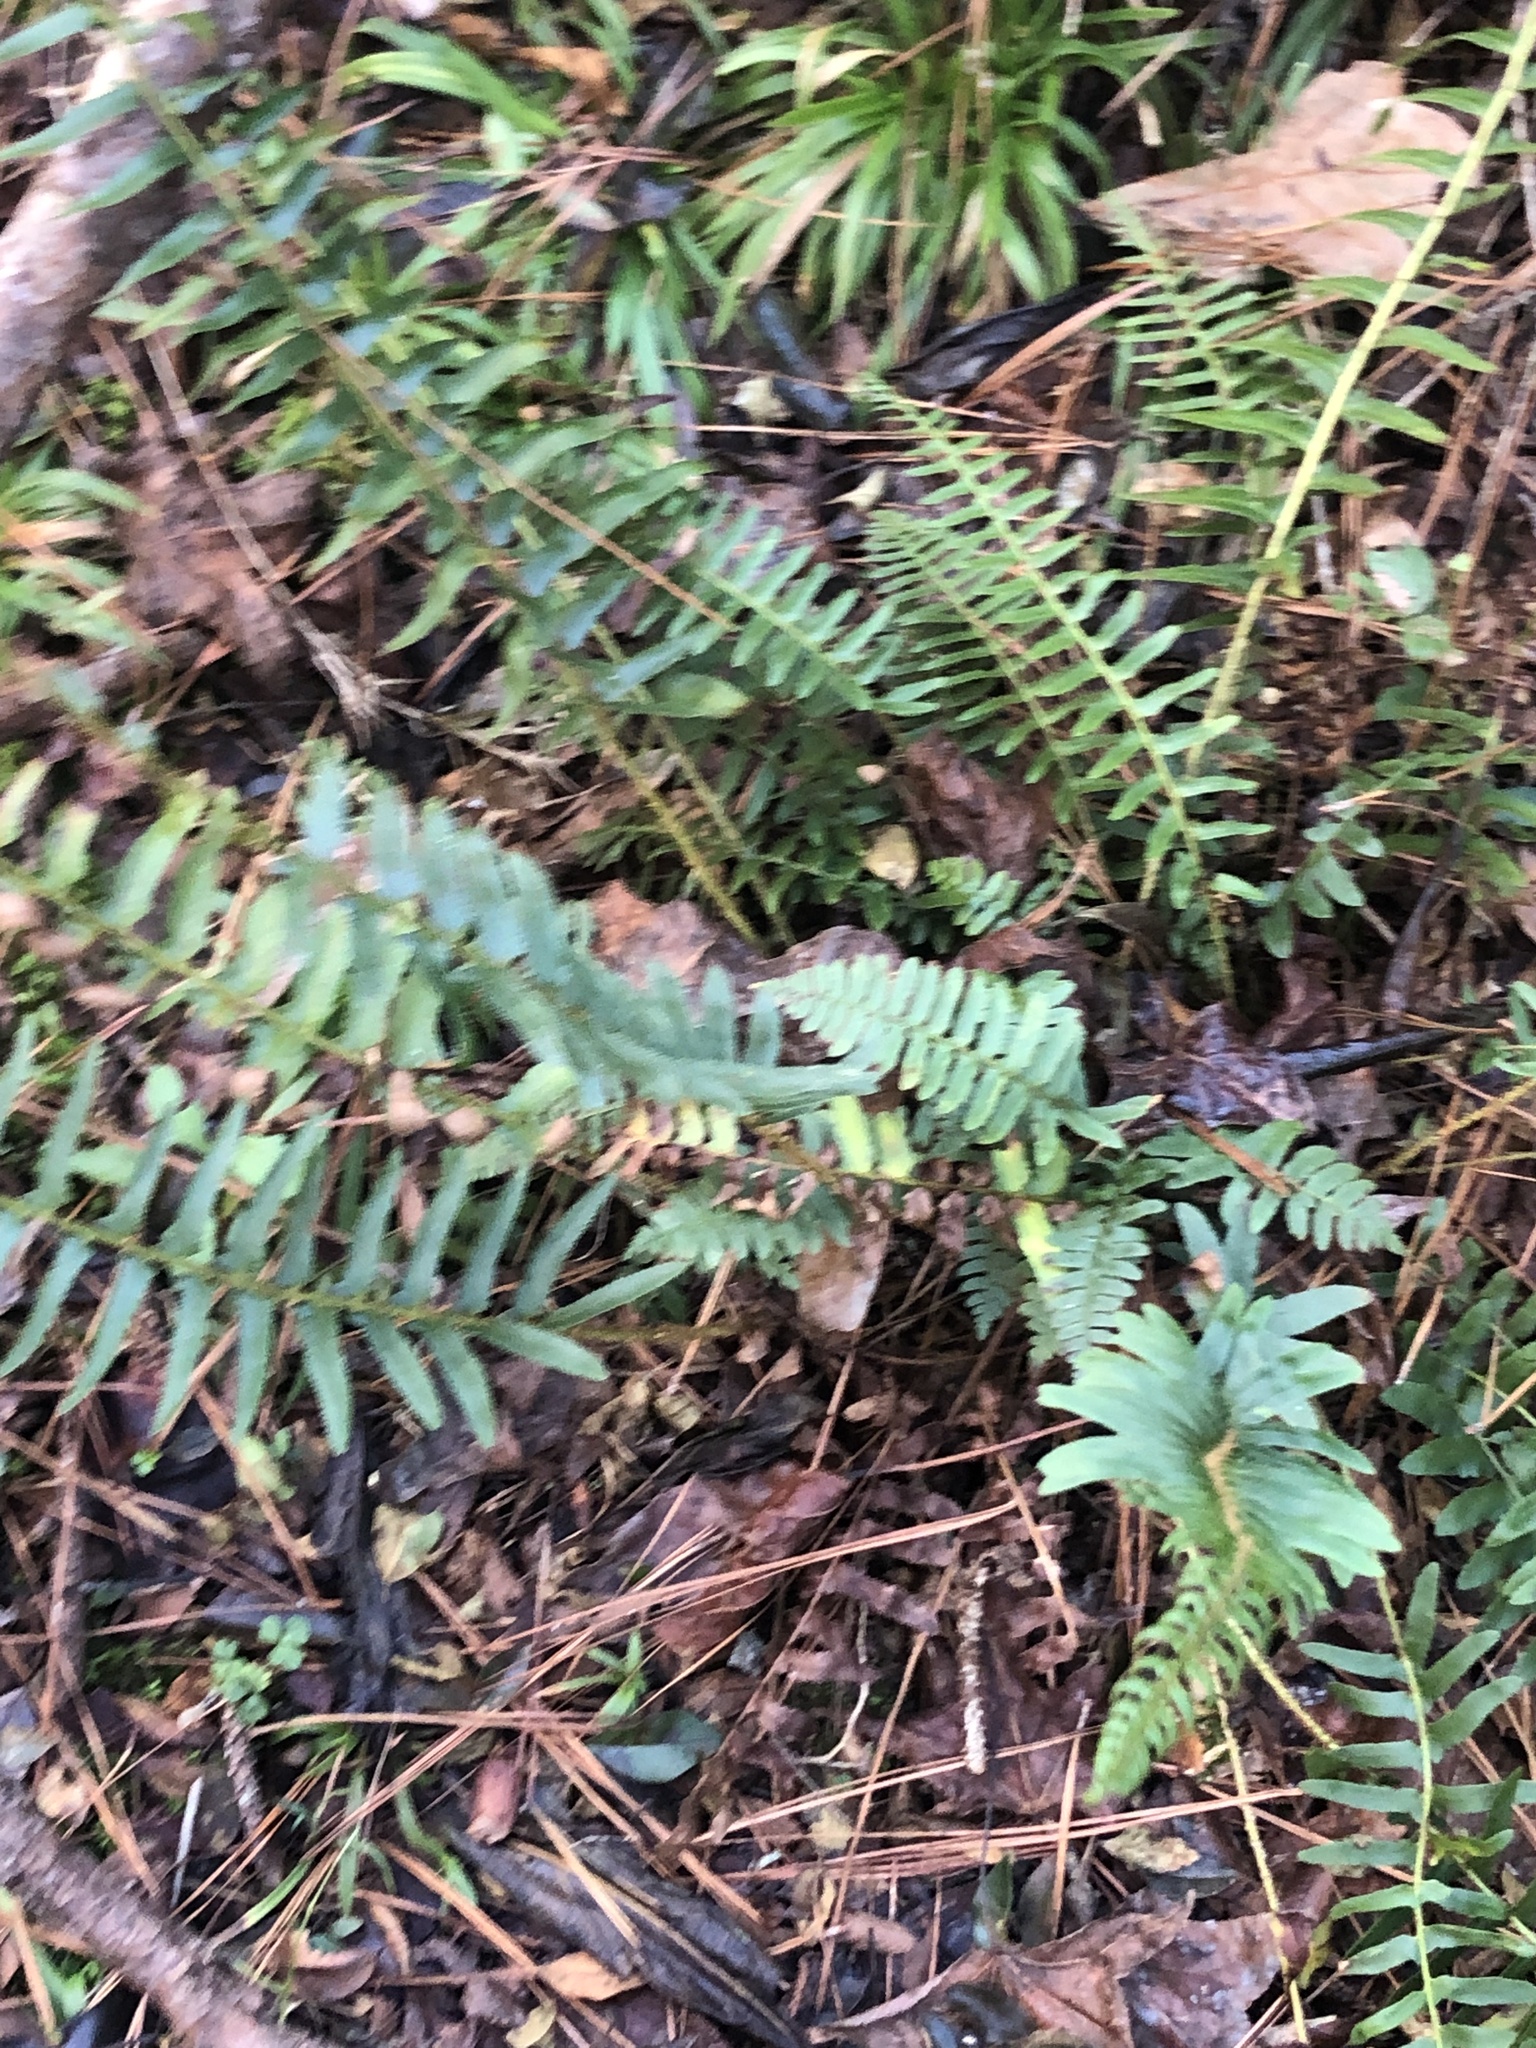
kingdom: Plantae
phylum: Tracheophyta
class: Polypodiopsida
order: Polypodiales
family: Dryopteridaceae
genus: Polystichum
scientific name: Polystichum acrostichoides
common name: Christmas fern
